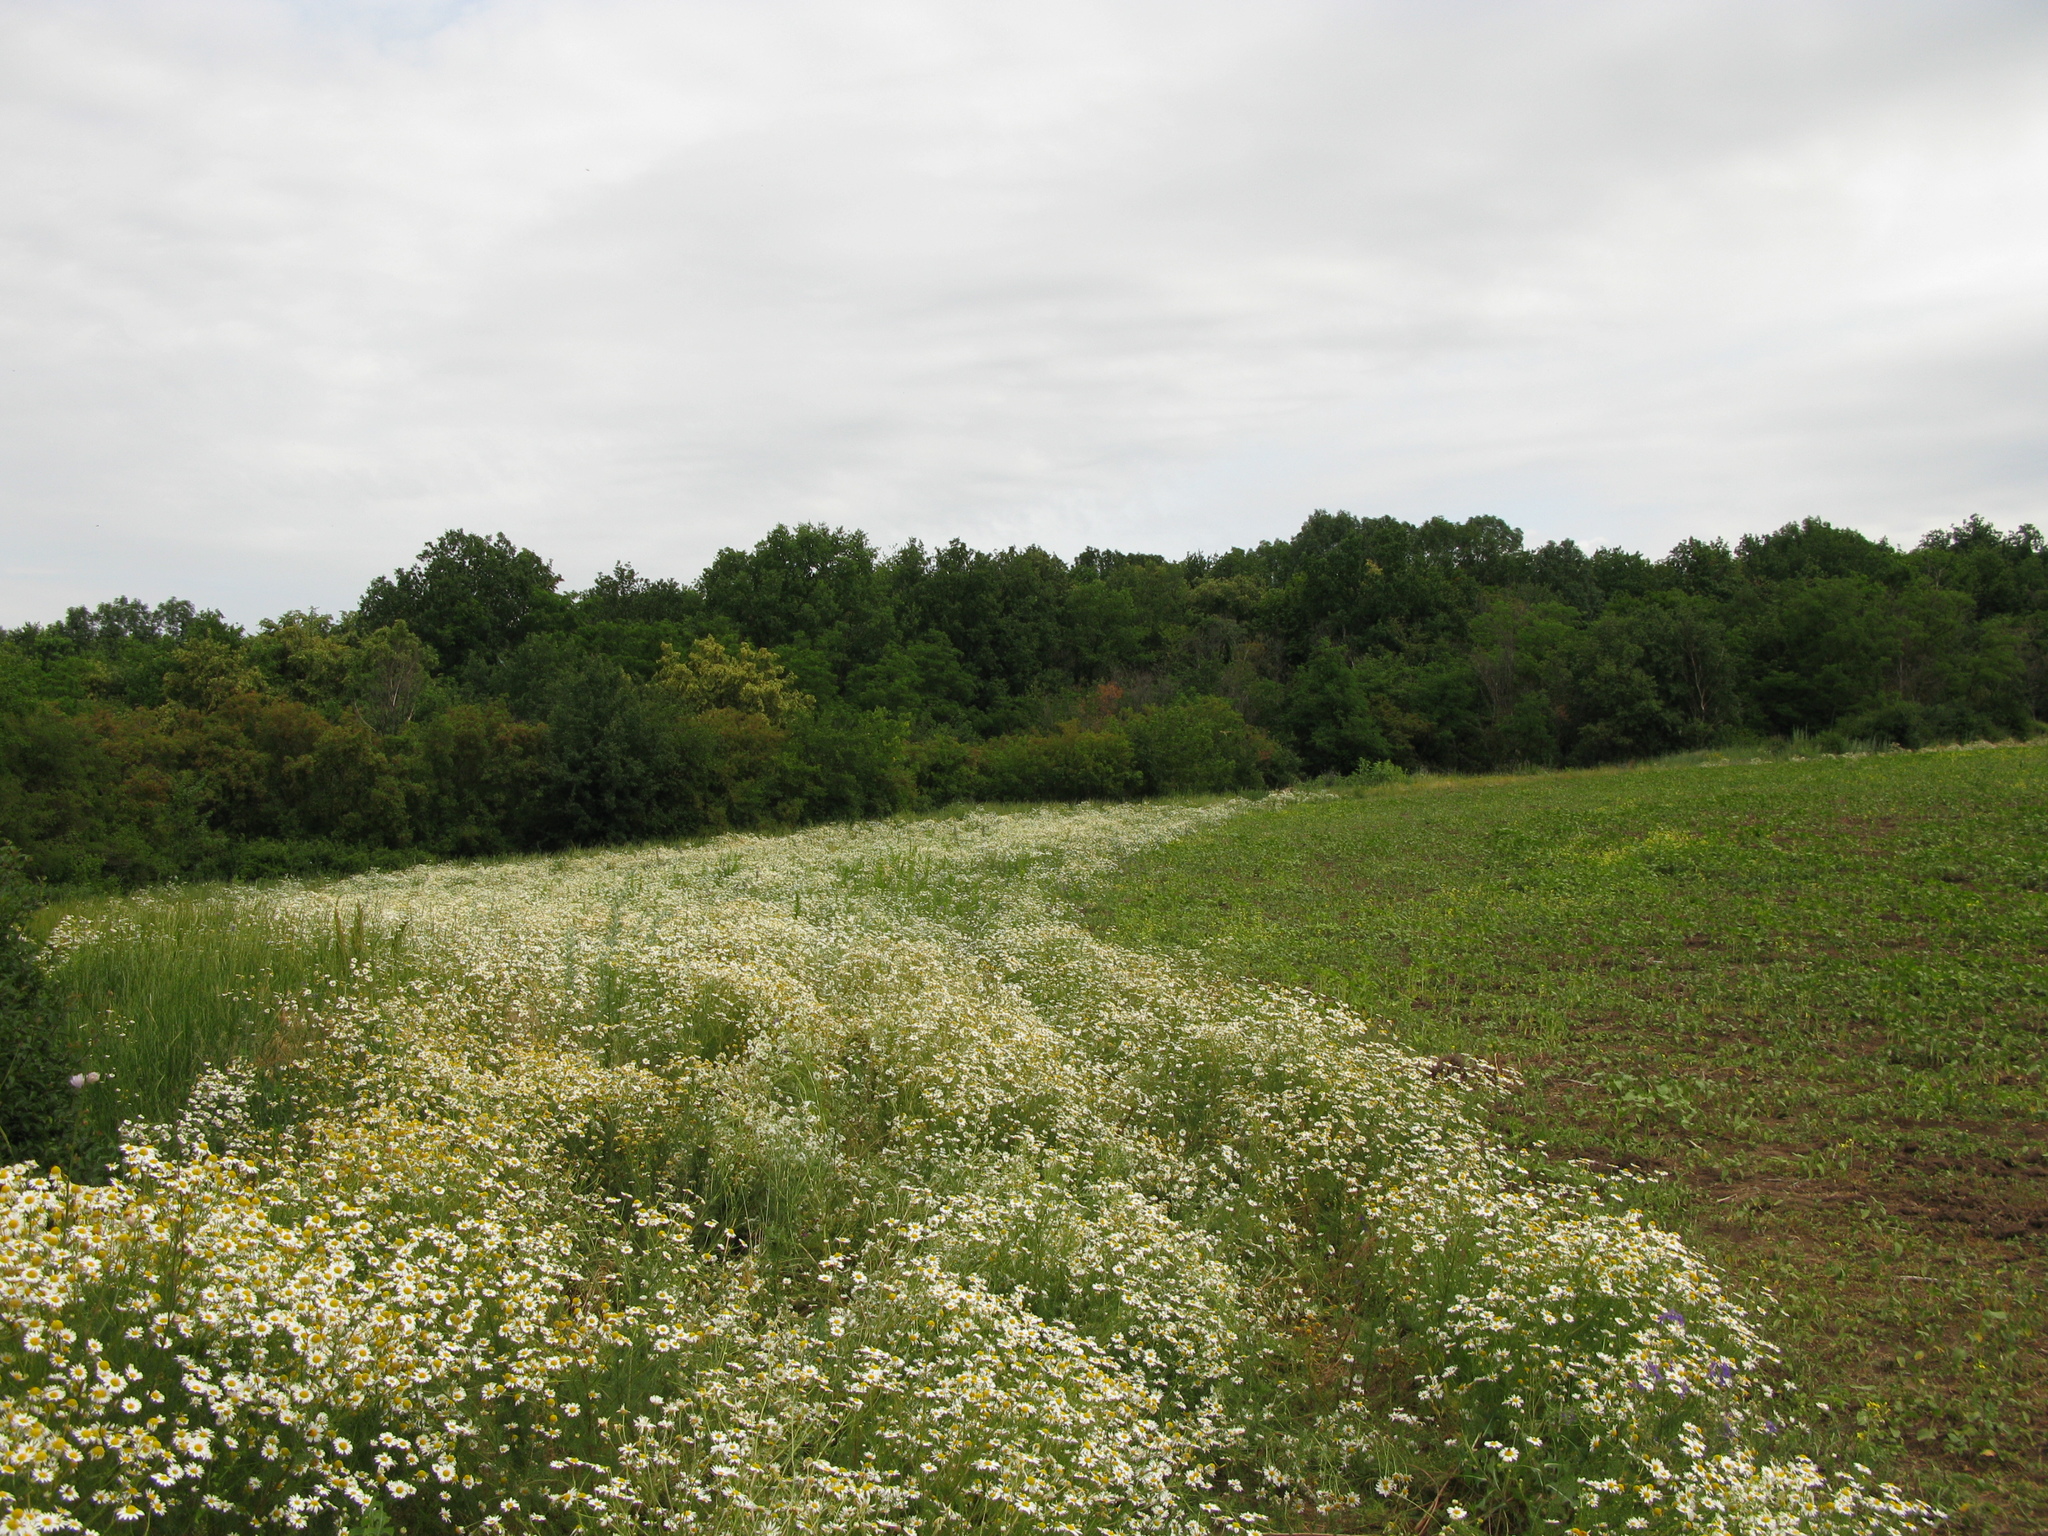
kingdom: Plantae
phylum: Tracheophyta
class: Magnoliopsida
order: Asterales
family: Asteraceae
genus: Matricaria
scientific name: Matricaria chamomilla
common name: Scented mayweed
